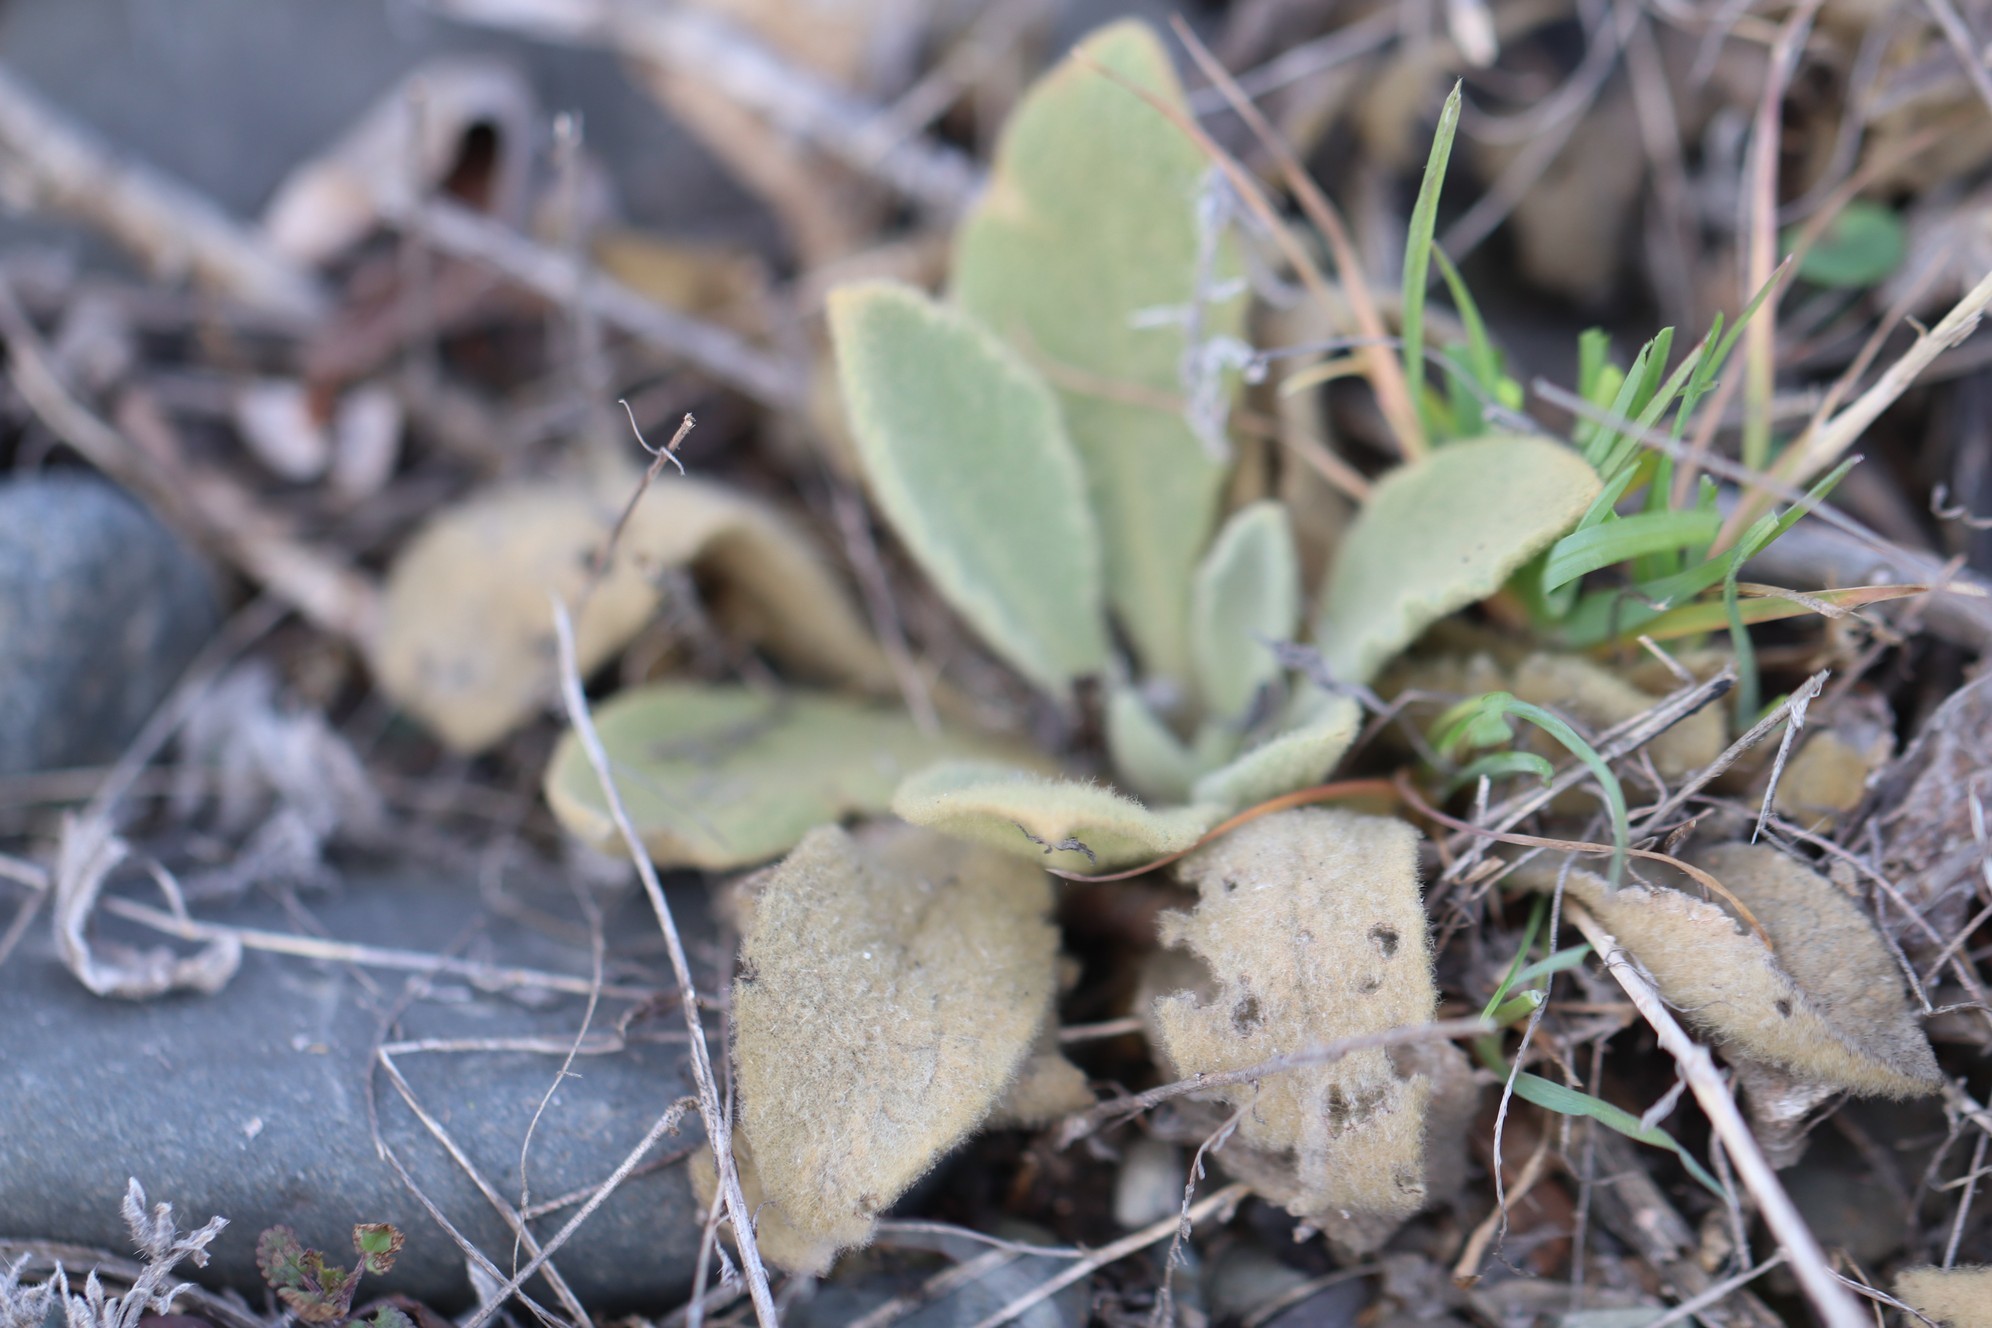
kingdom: Plantae
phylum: Tracheophyta
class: Magnoliopsida
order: Lamiales
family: Scrophulariaceae
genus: Verbascum
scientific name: Verbascum thapsus
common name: Common mullein
